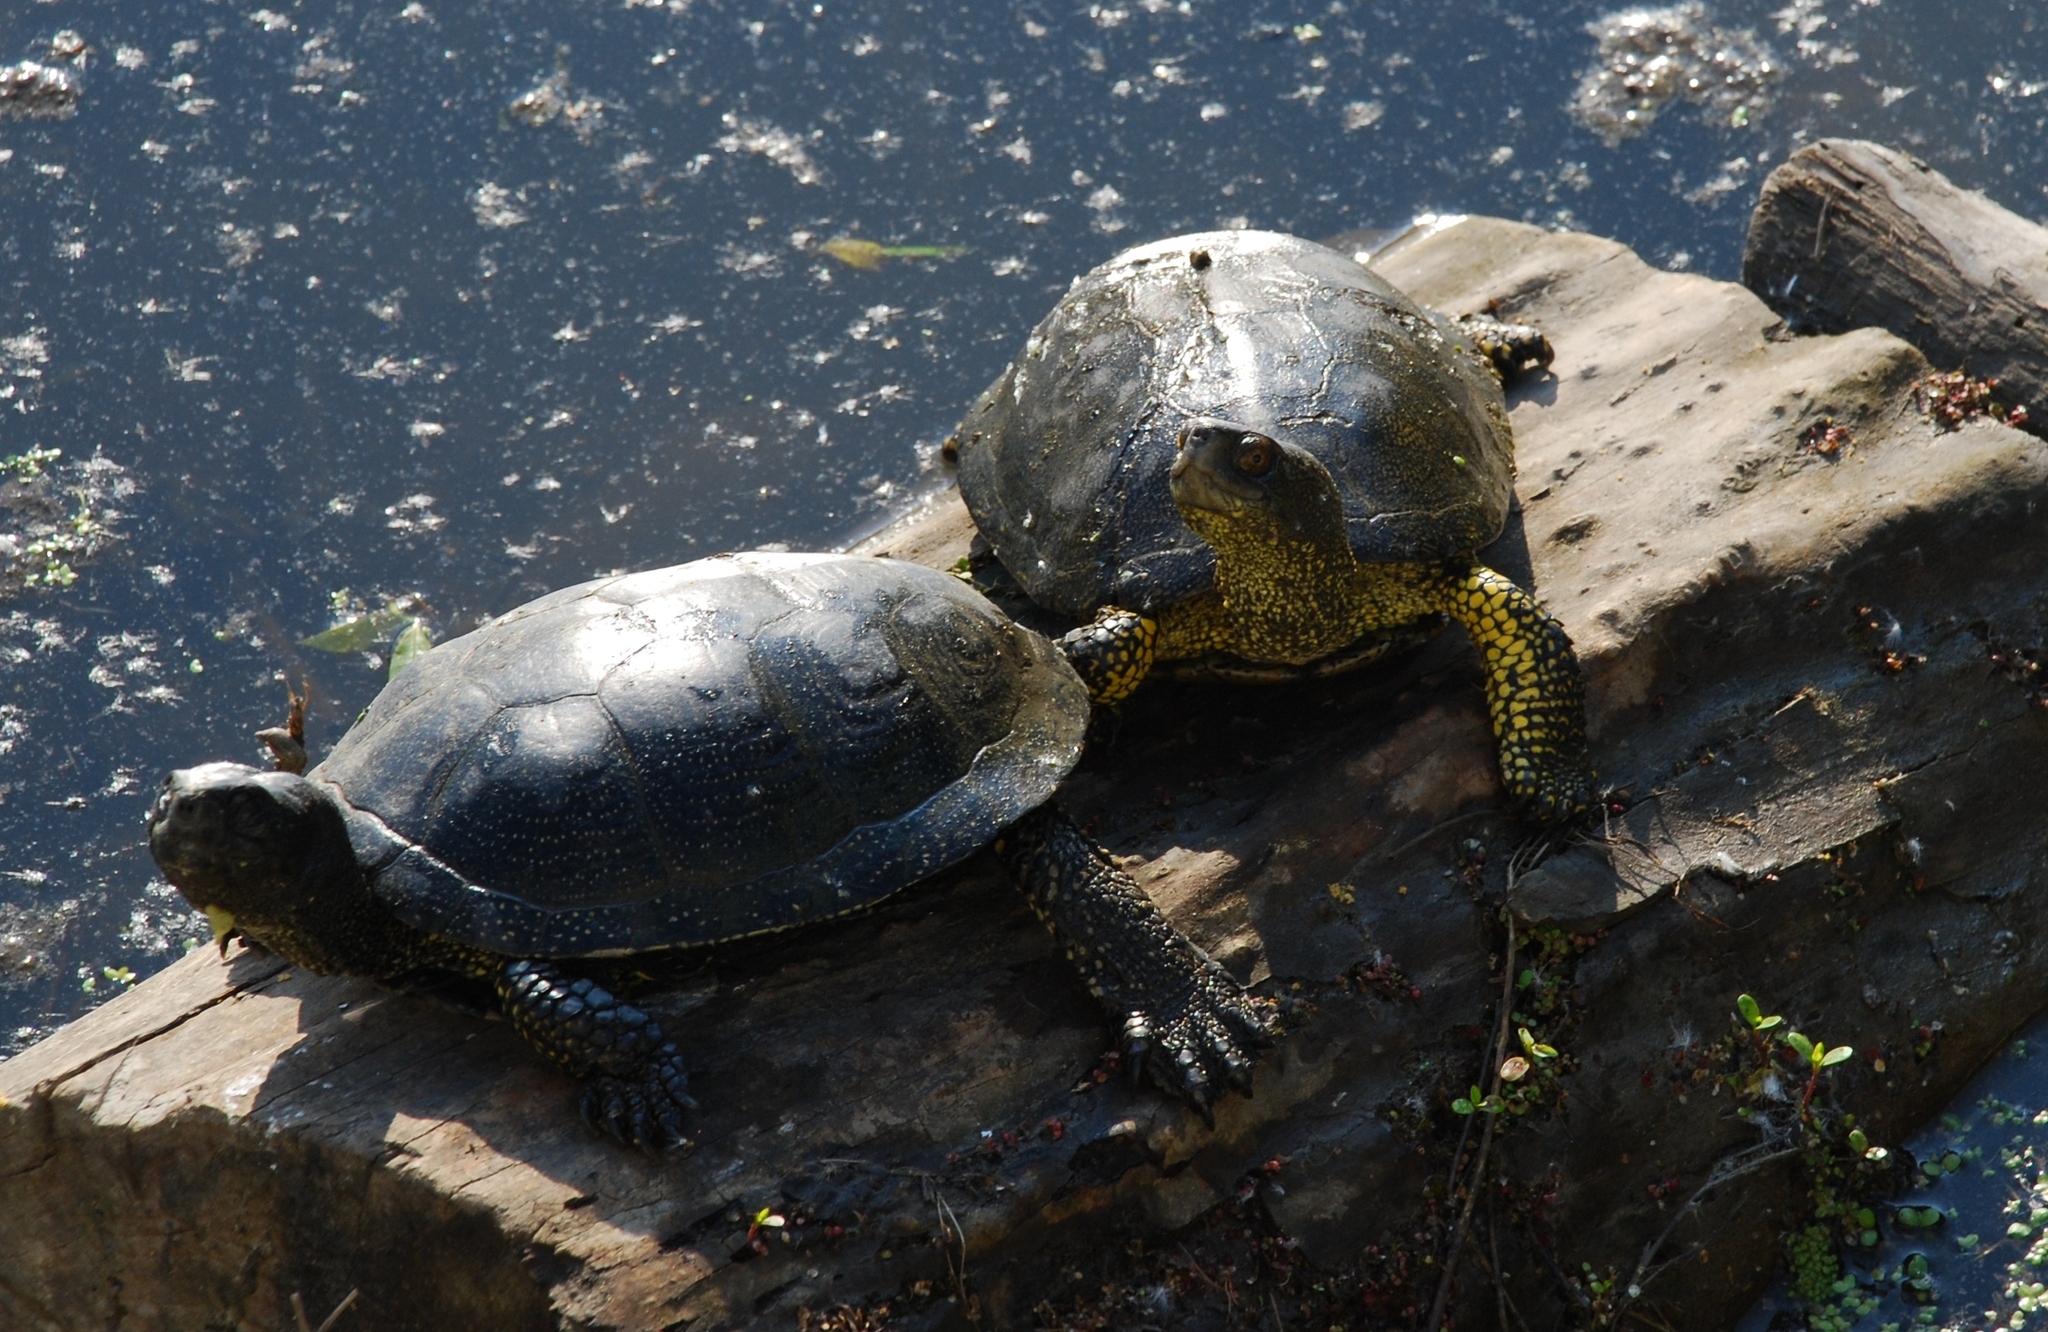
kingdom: Animalia
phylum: Chordata
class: Testudines
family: Emydidae
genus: Emys
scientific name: Emys orbicularis
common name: European pond turtle
